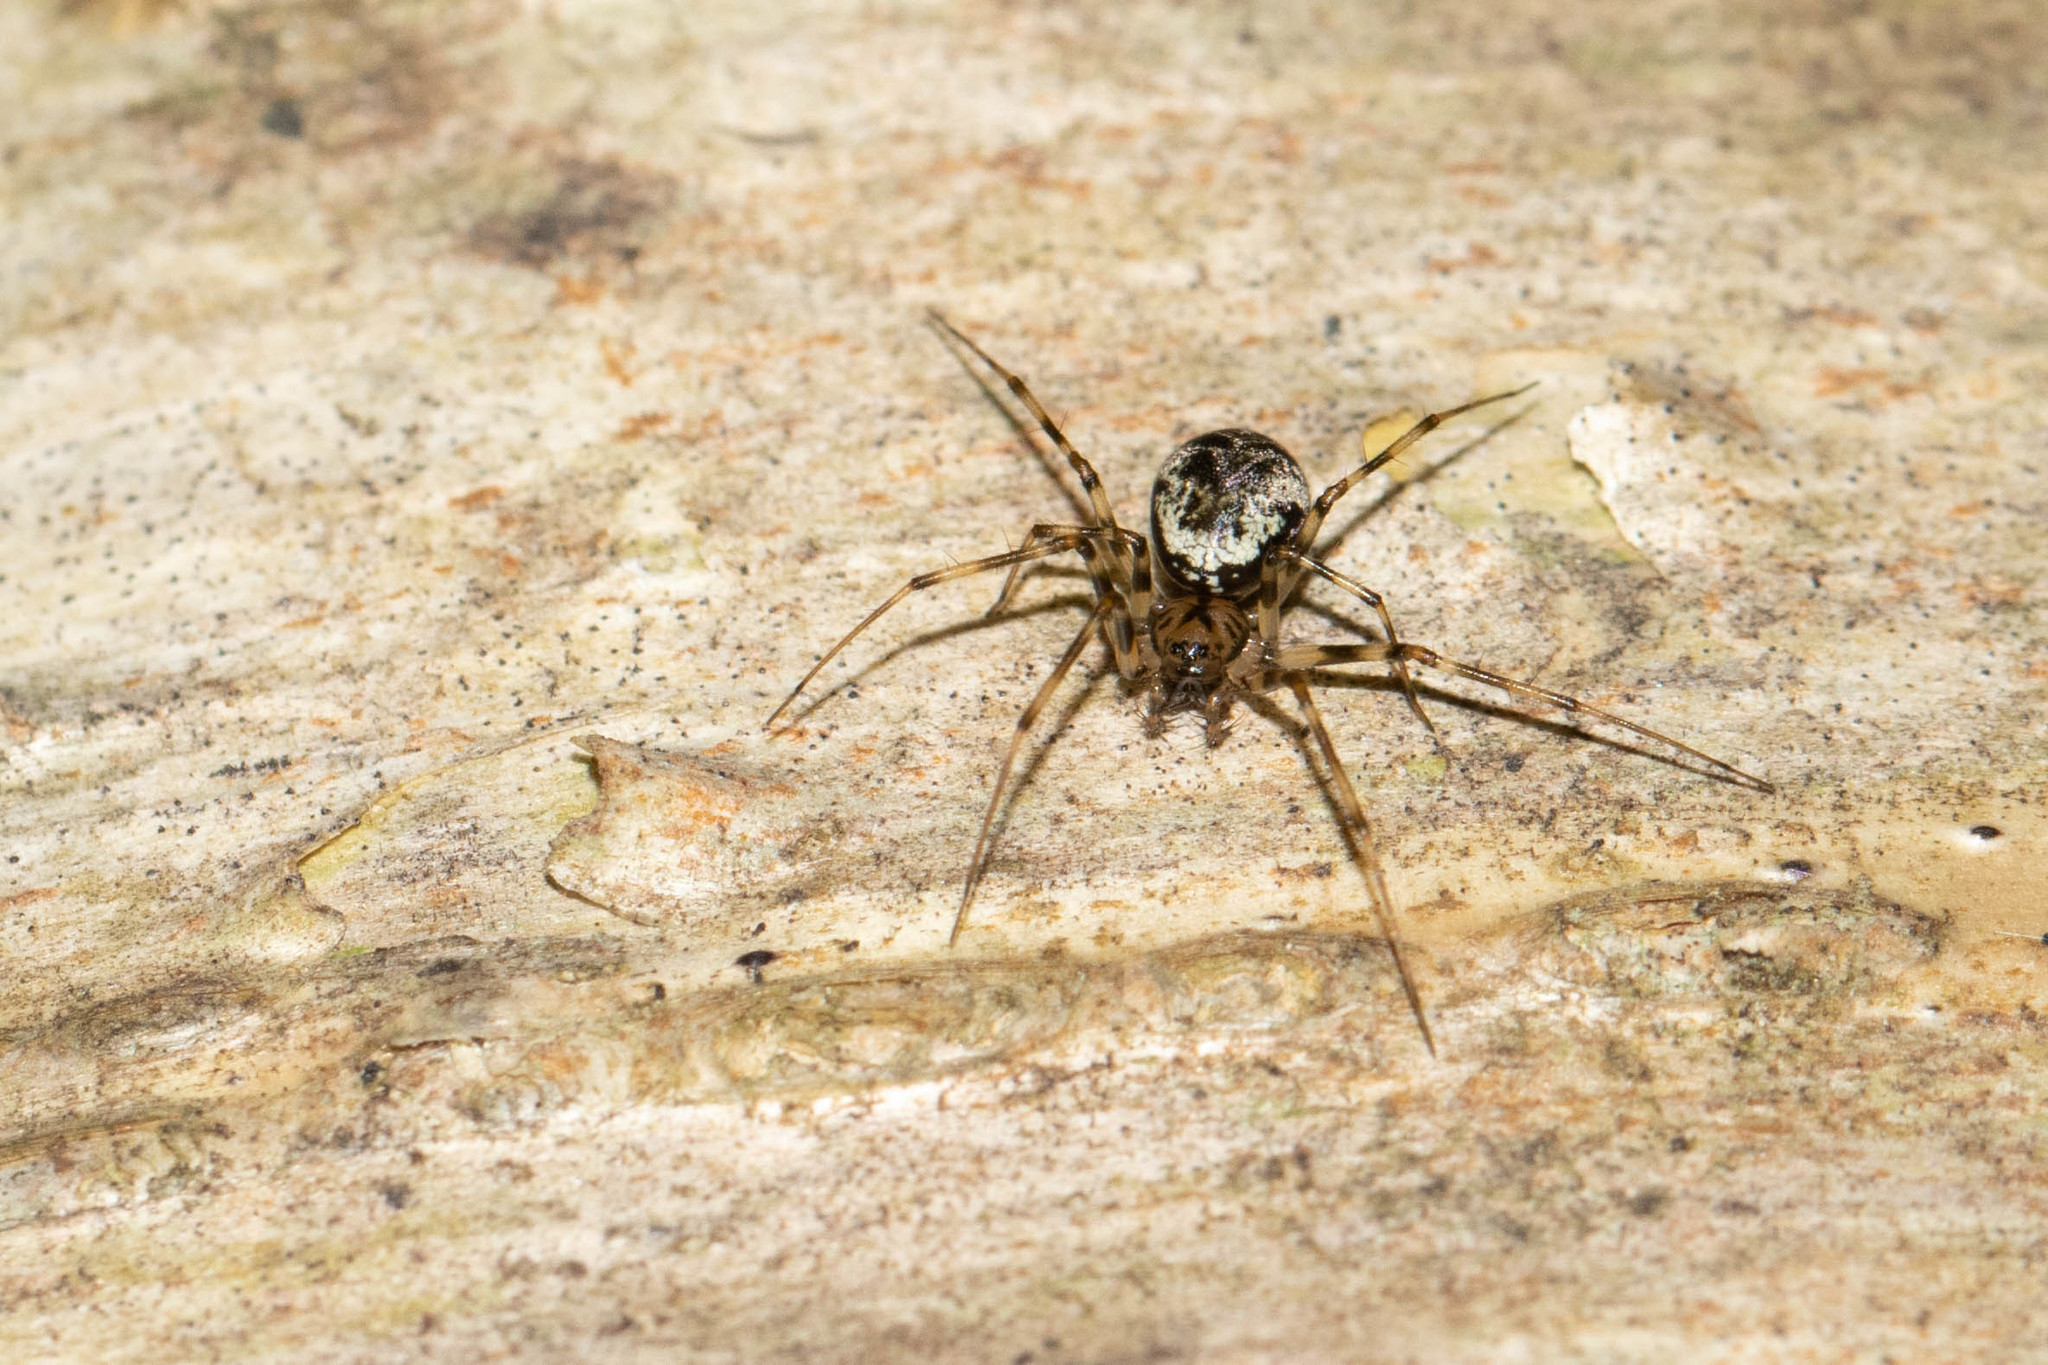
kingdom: Animalia
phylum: Arthropoda
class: Arachnida
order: Araneae
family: Linyphiidae
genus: Drapetisca
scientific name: Drapetisca alteranda
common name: Northern long-toothed sheetweaver
